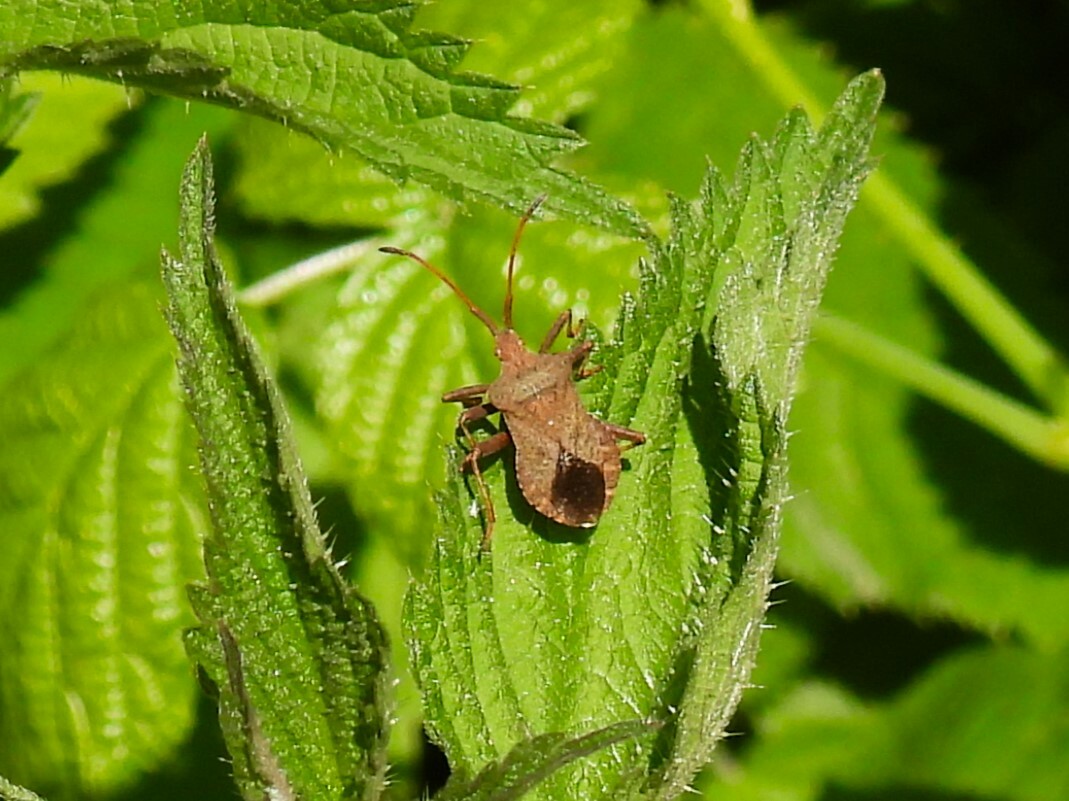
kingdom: Animalia
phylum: Arthropoda
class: Insecta
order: Hemiptera
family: Coreidae
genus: Coreus
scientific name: Coreus marginatus
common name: Dock bug
